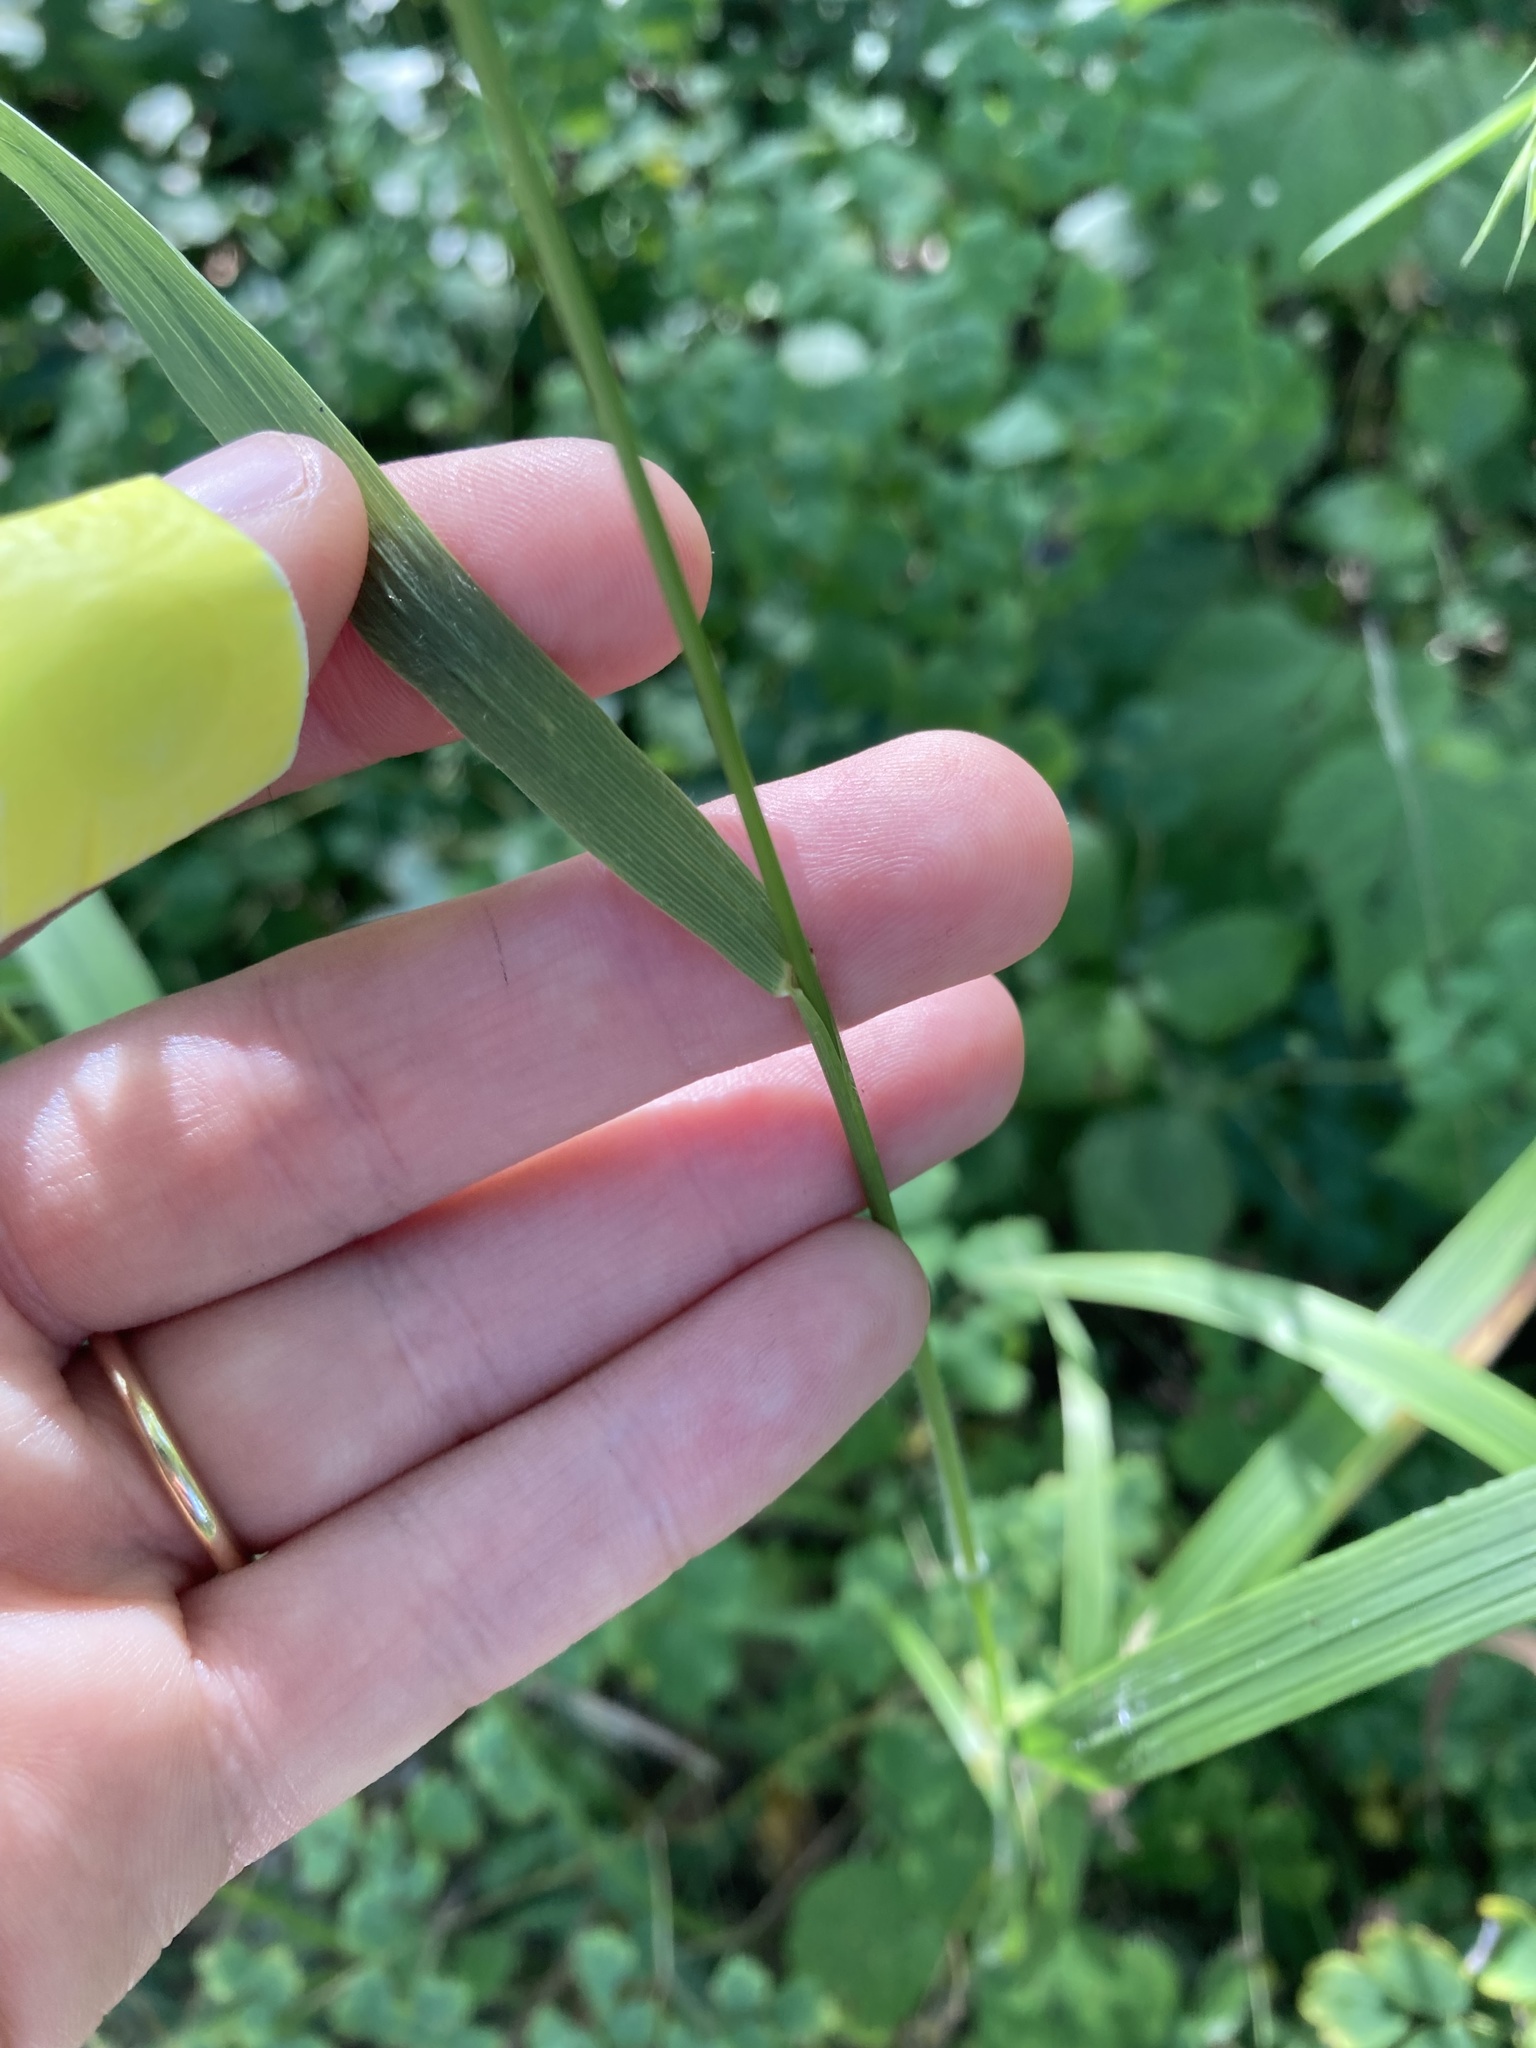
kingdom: Plantae
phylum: Tracheophyta
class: Liliopsida
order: Poales
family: Poaceae
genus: Bromus
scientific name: Bromus ciliatus
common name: Fringe brome
